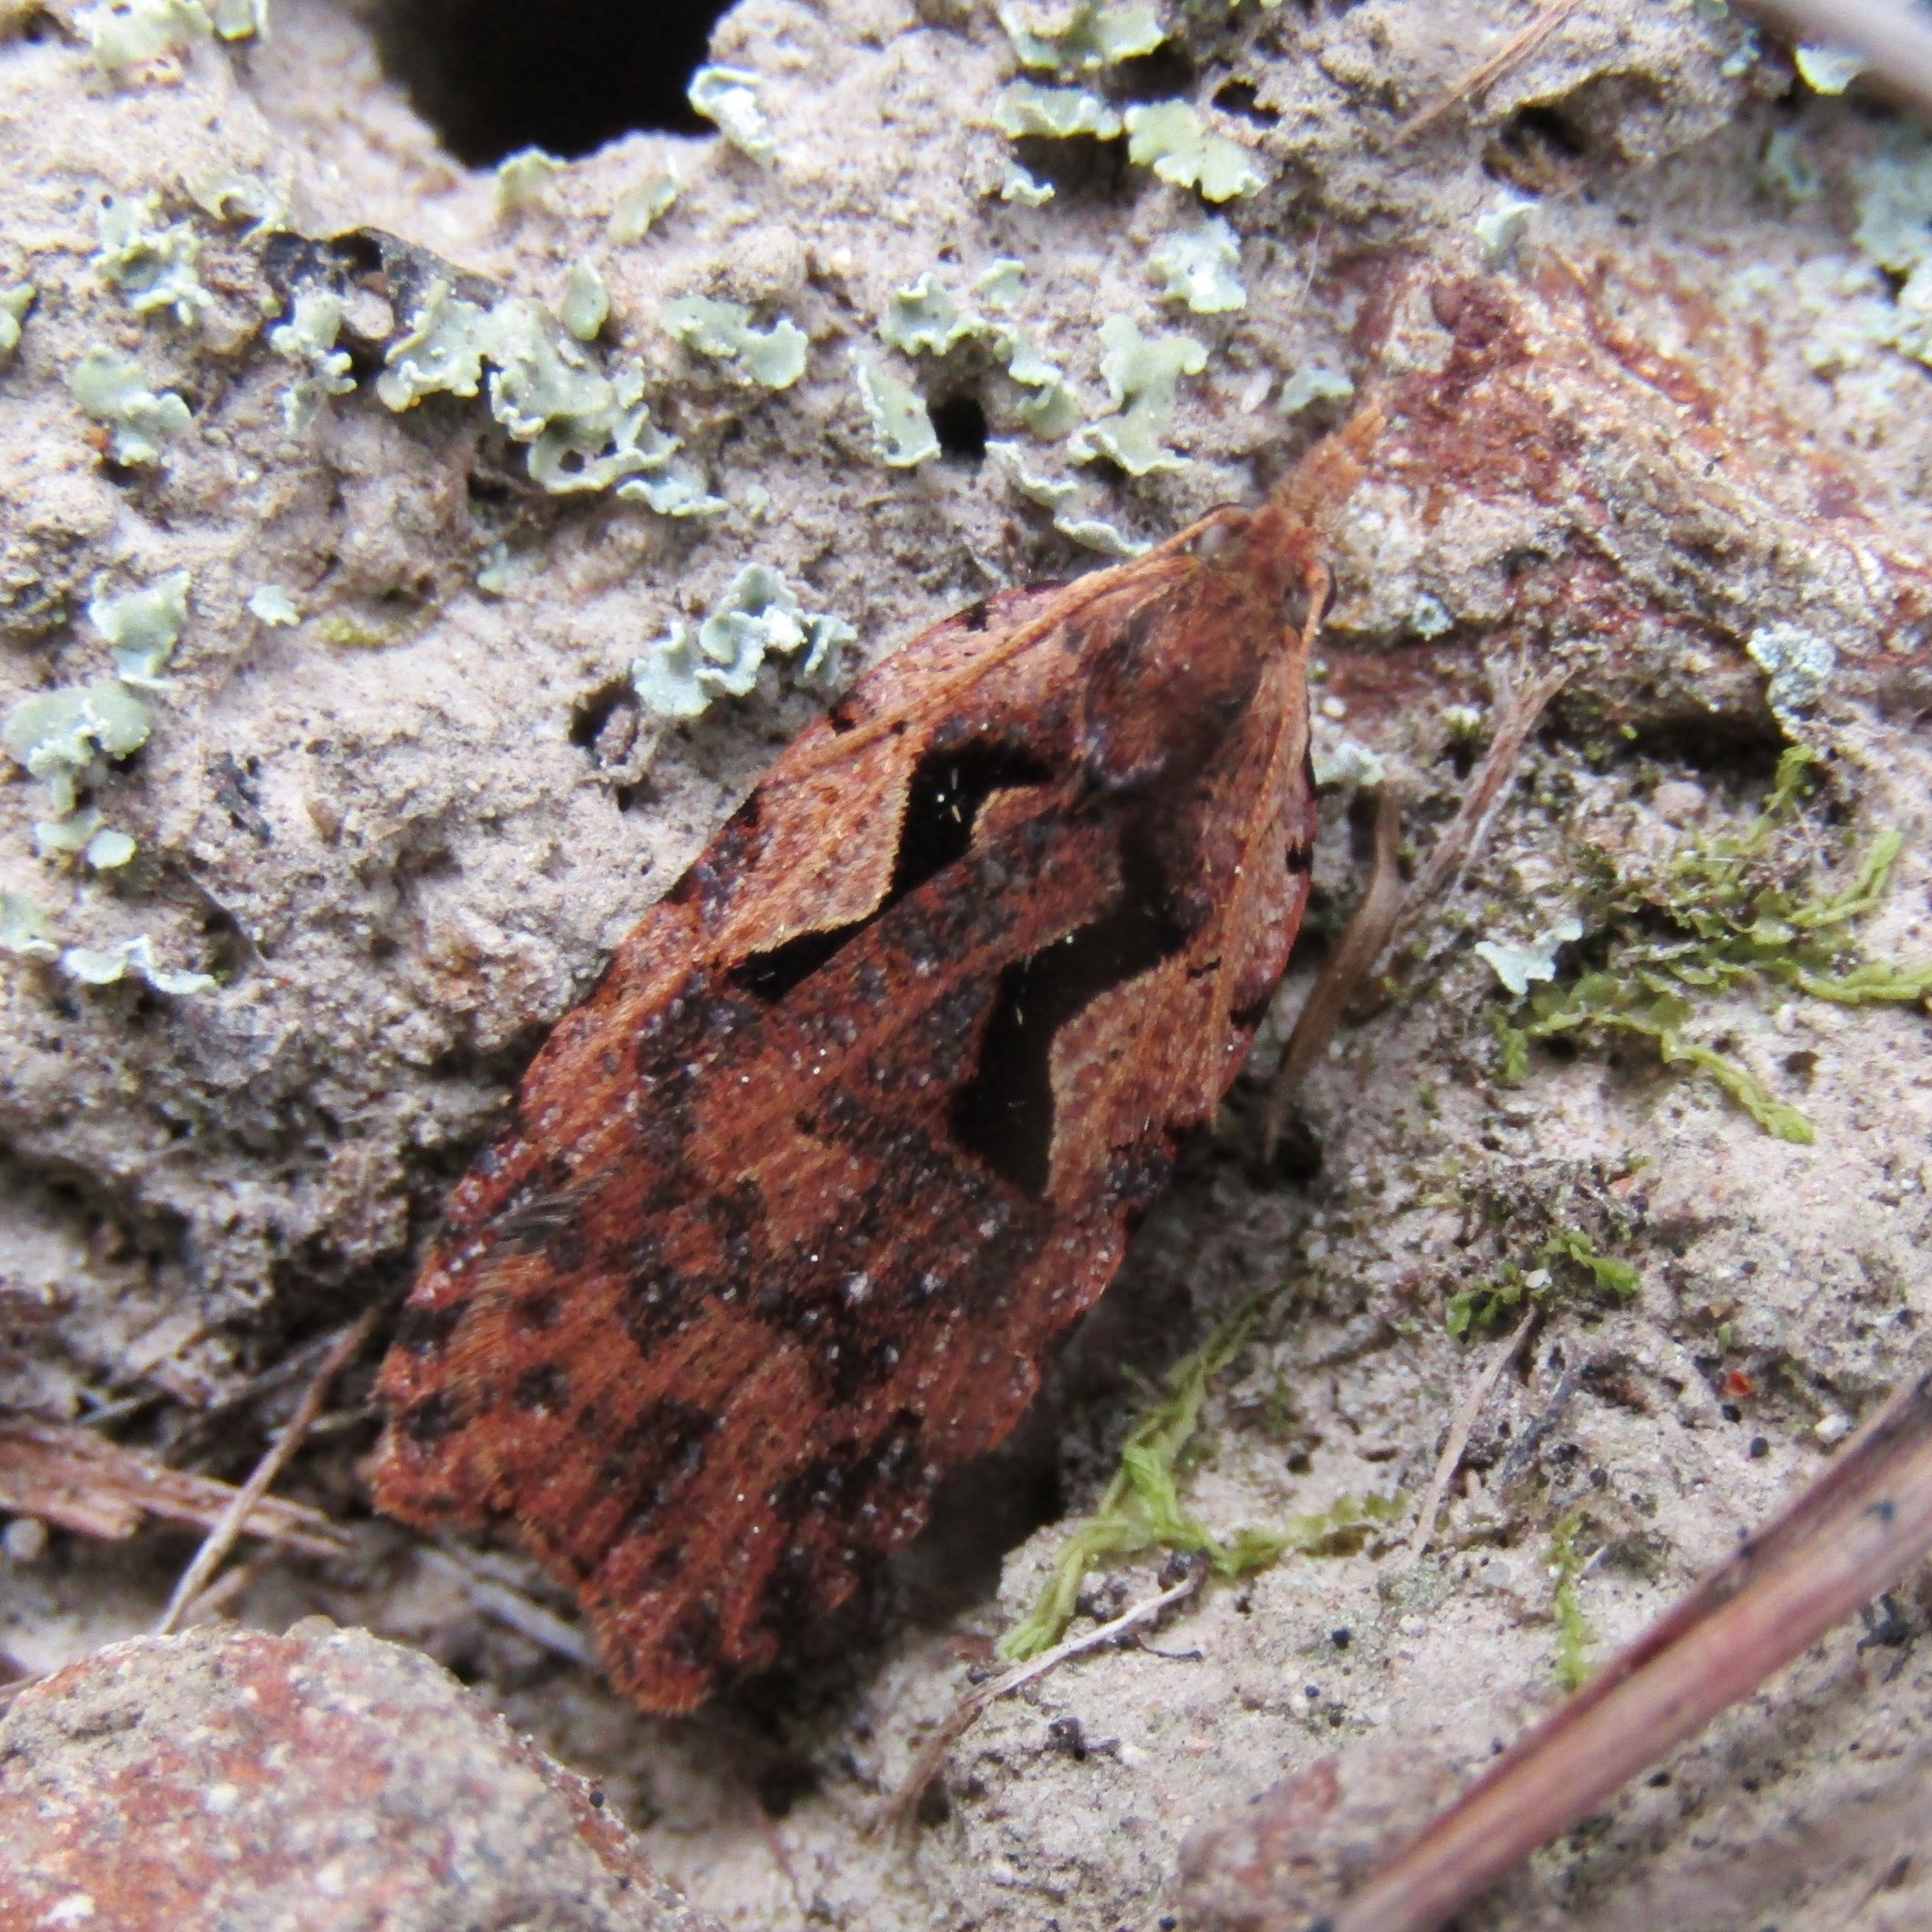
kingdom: Animalia
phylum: Arthropoda
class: Insecta
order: Lepidoptera
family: Tortricidae
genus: Cnephasia
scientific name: Cnephasia jactatana
